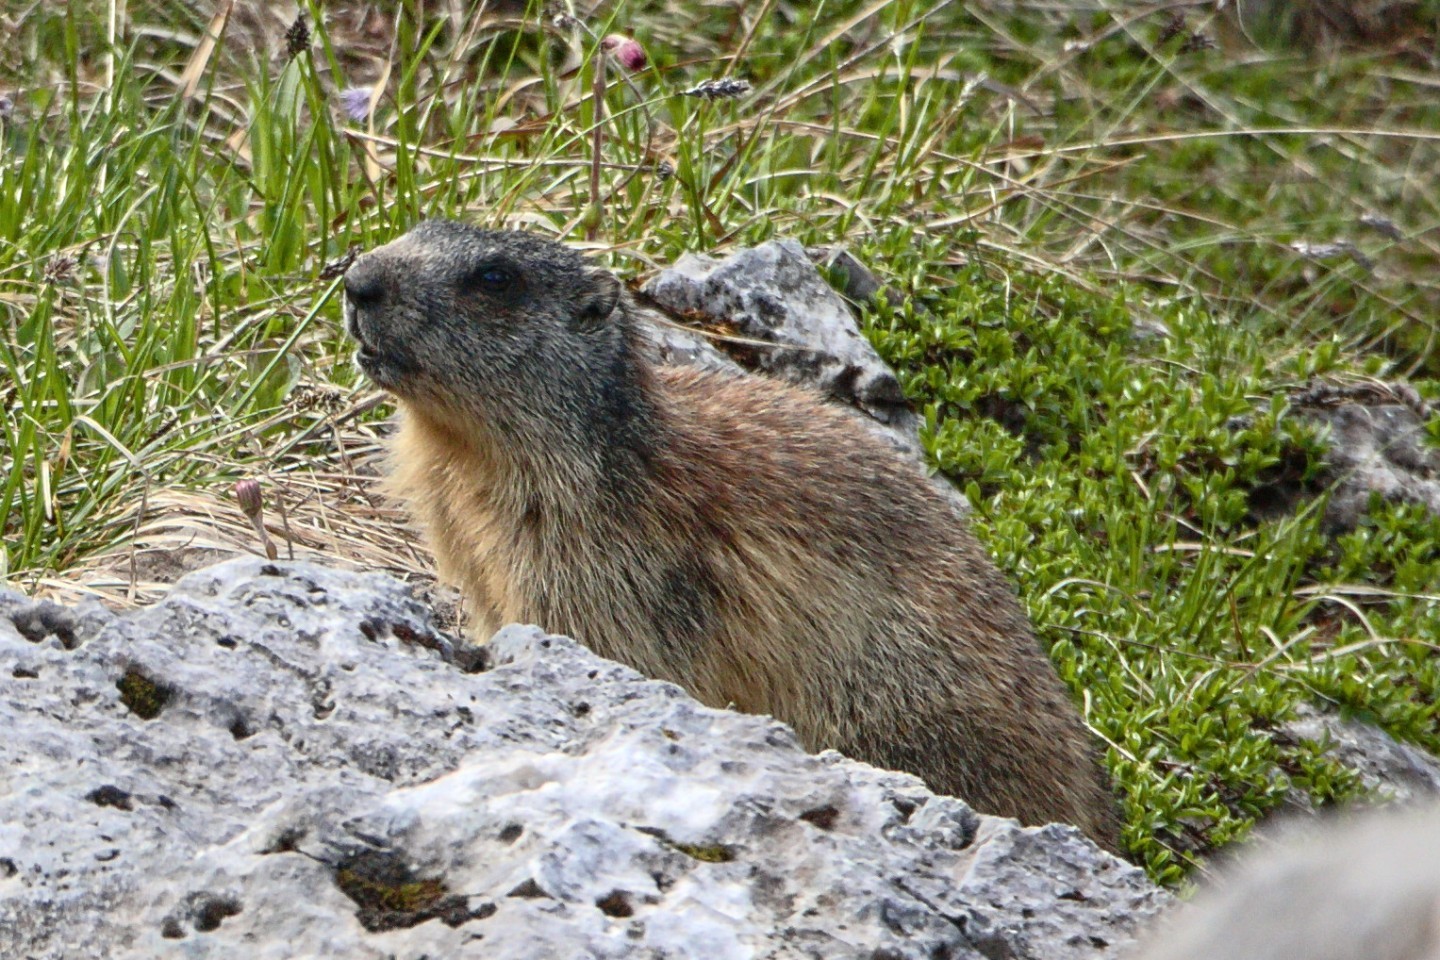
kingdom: Animalia
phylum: Chordata
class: Mammalia
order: Rodentia
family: Sciuridae
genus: Marmota
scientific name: Marmota marmota
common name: Alpine marmot
